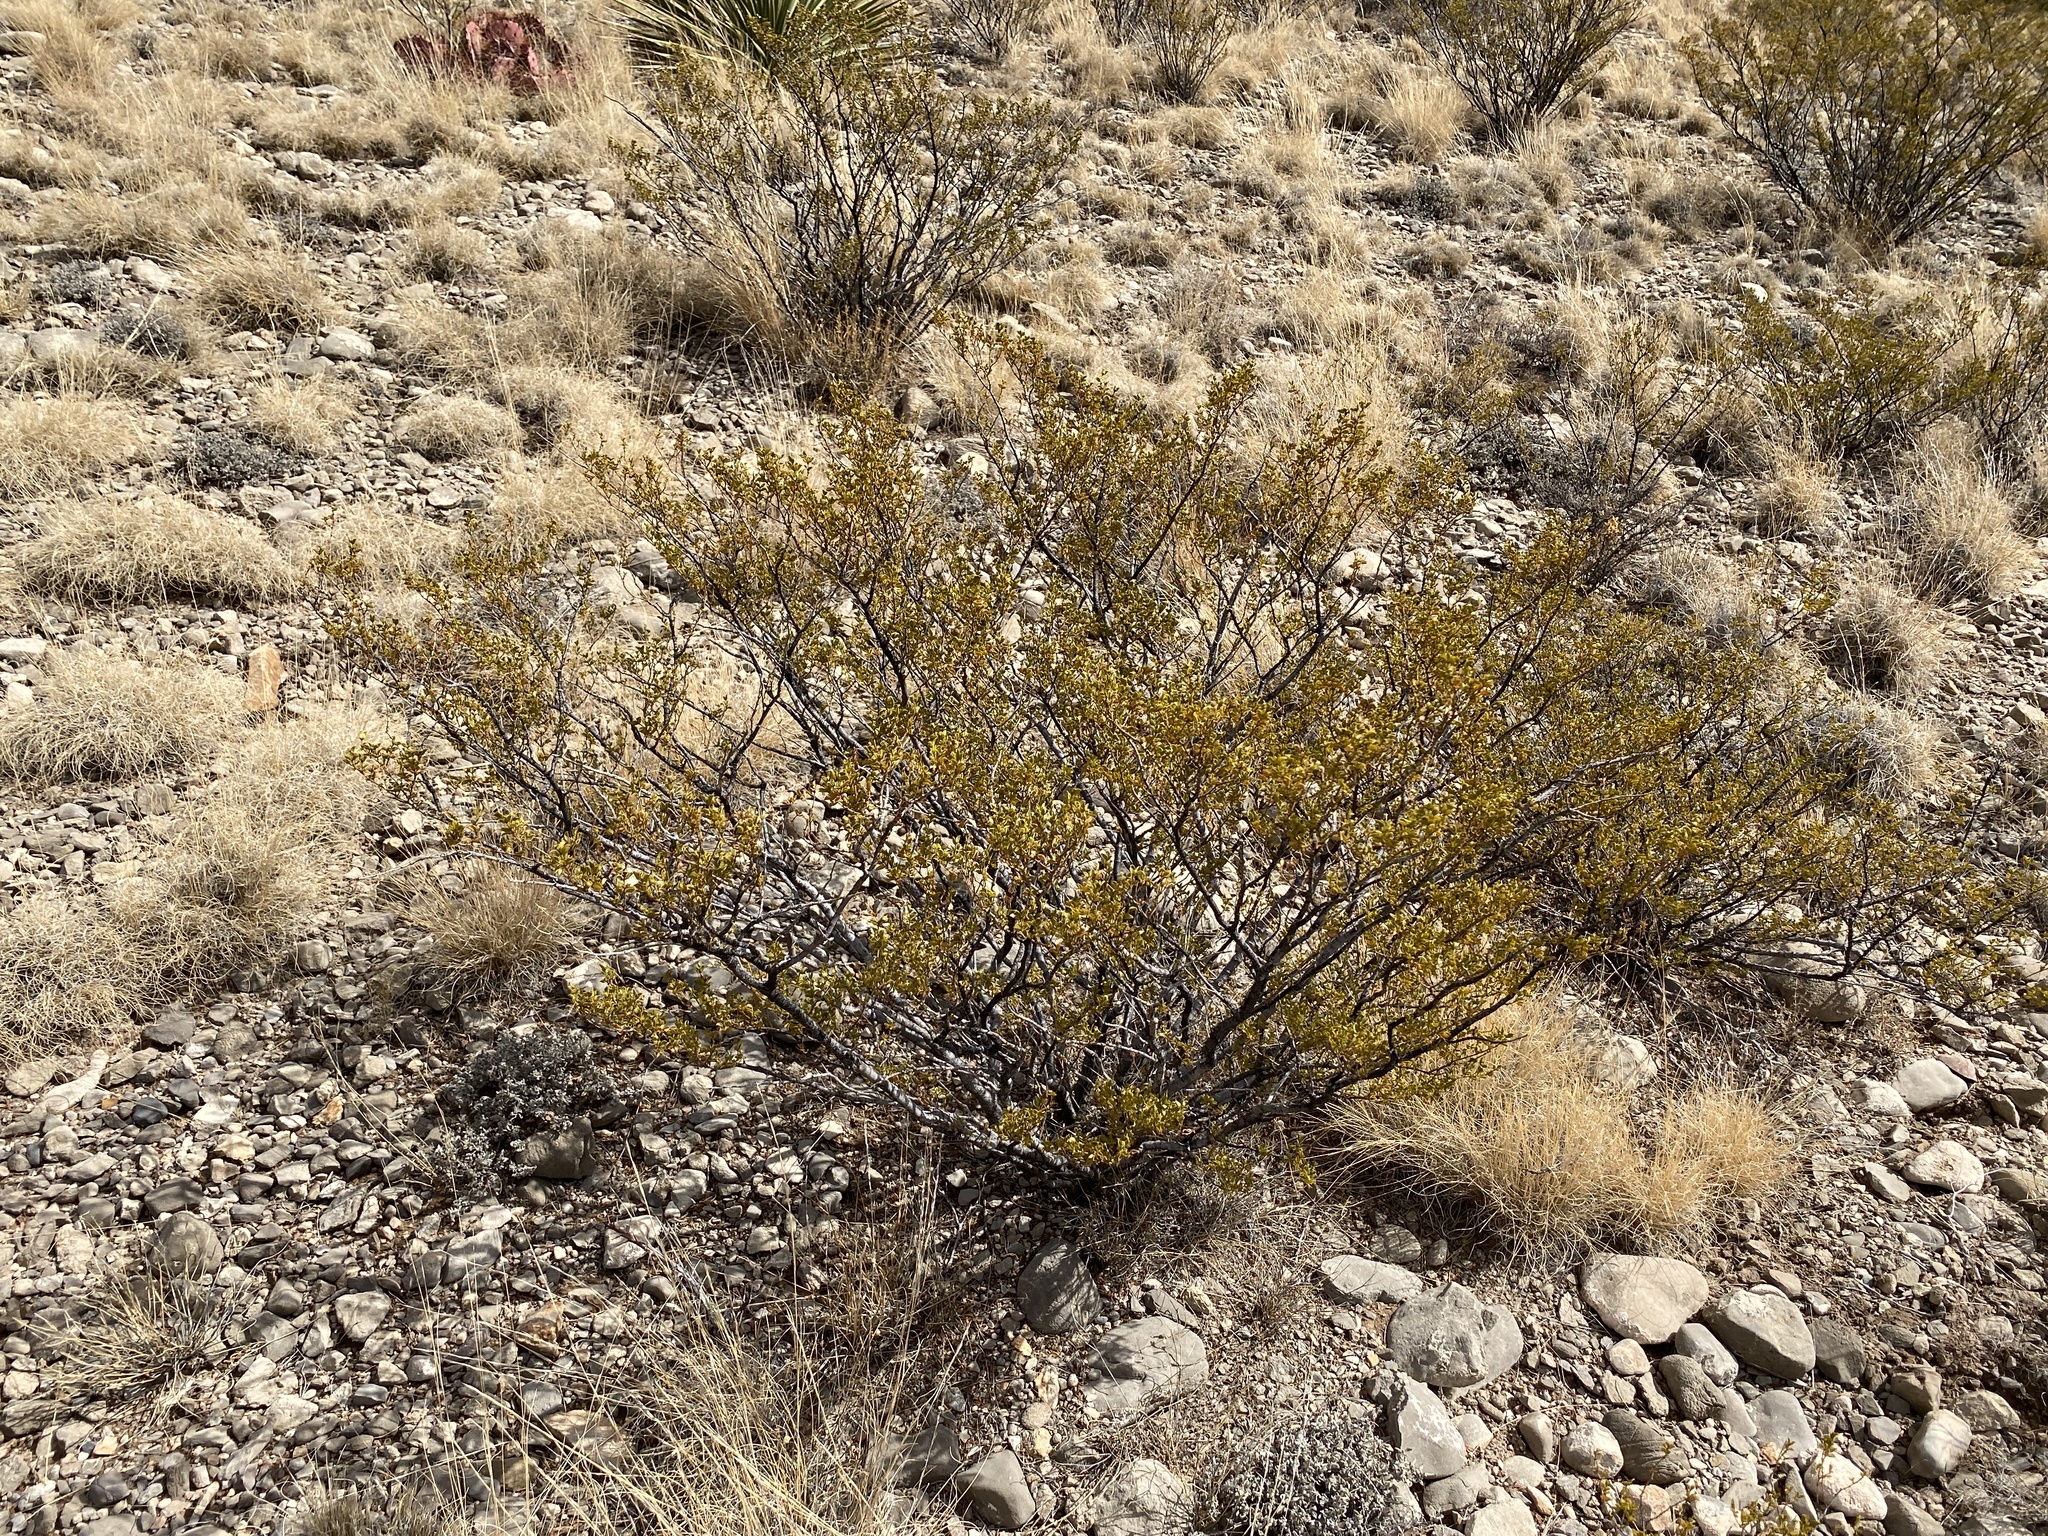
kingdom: Plantae
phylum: Tracheophyta
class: Magnoliopsida
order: Zygophyllales
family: Zygophyllaceae
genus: Larrea
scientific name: Larrea tridentata
